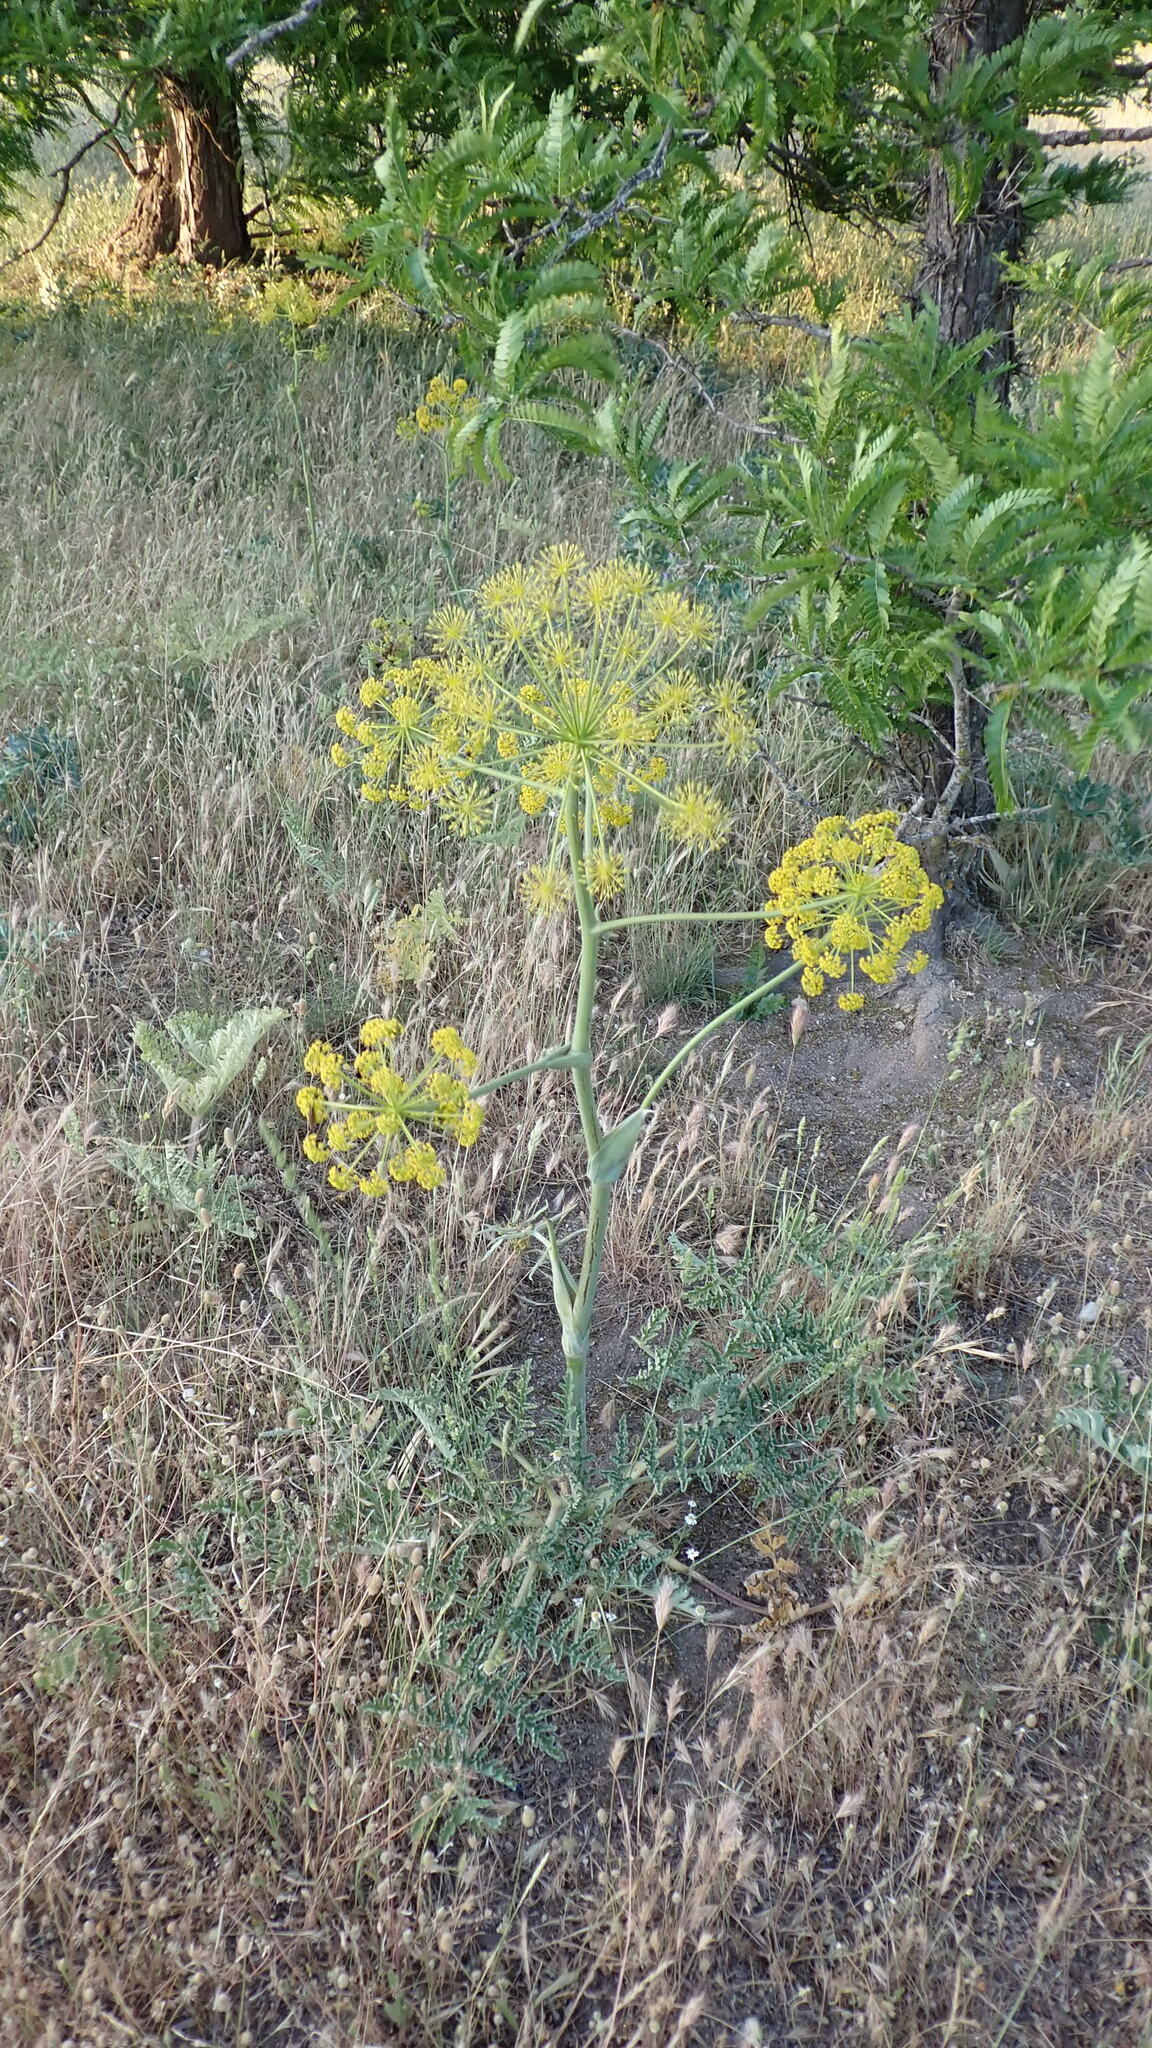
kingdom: Plantae
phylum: Tracheophyta
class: Magnoliopsida
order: Apiales
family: Apiaceae
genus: Thapsia
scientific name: Thapsia villosa
